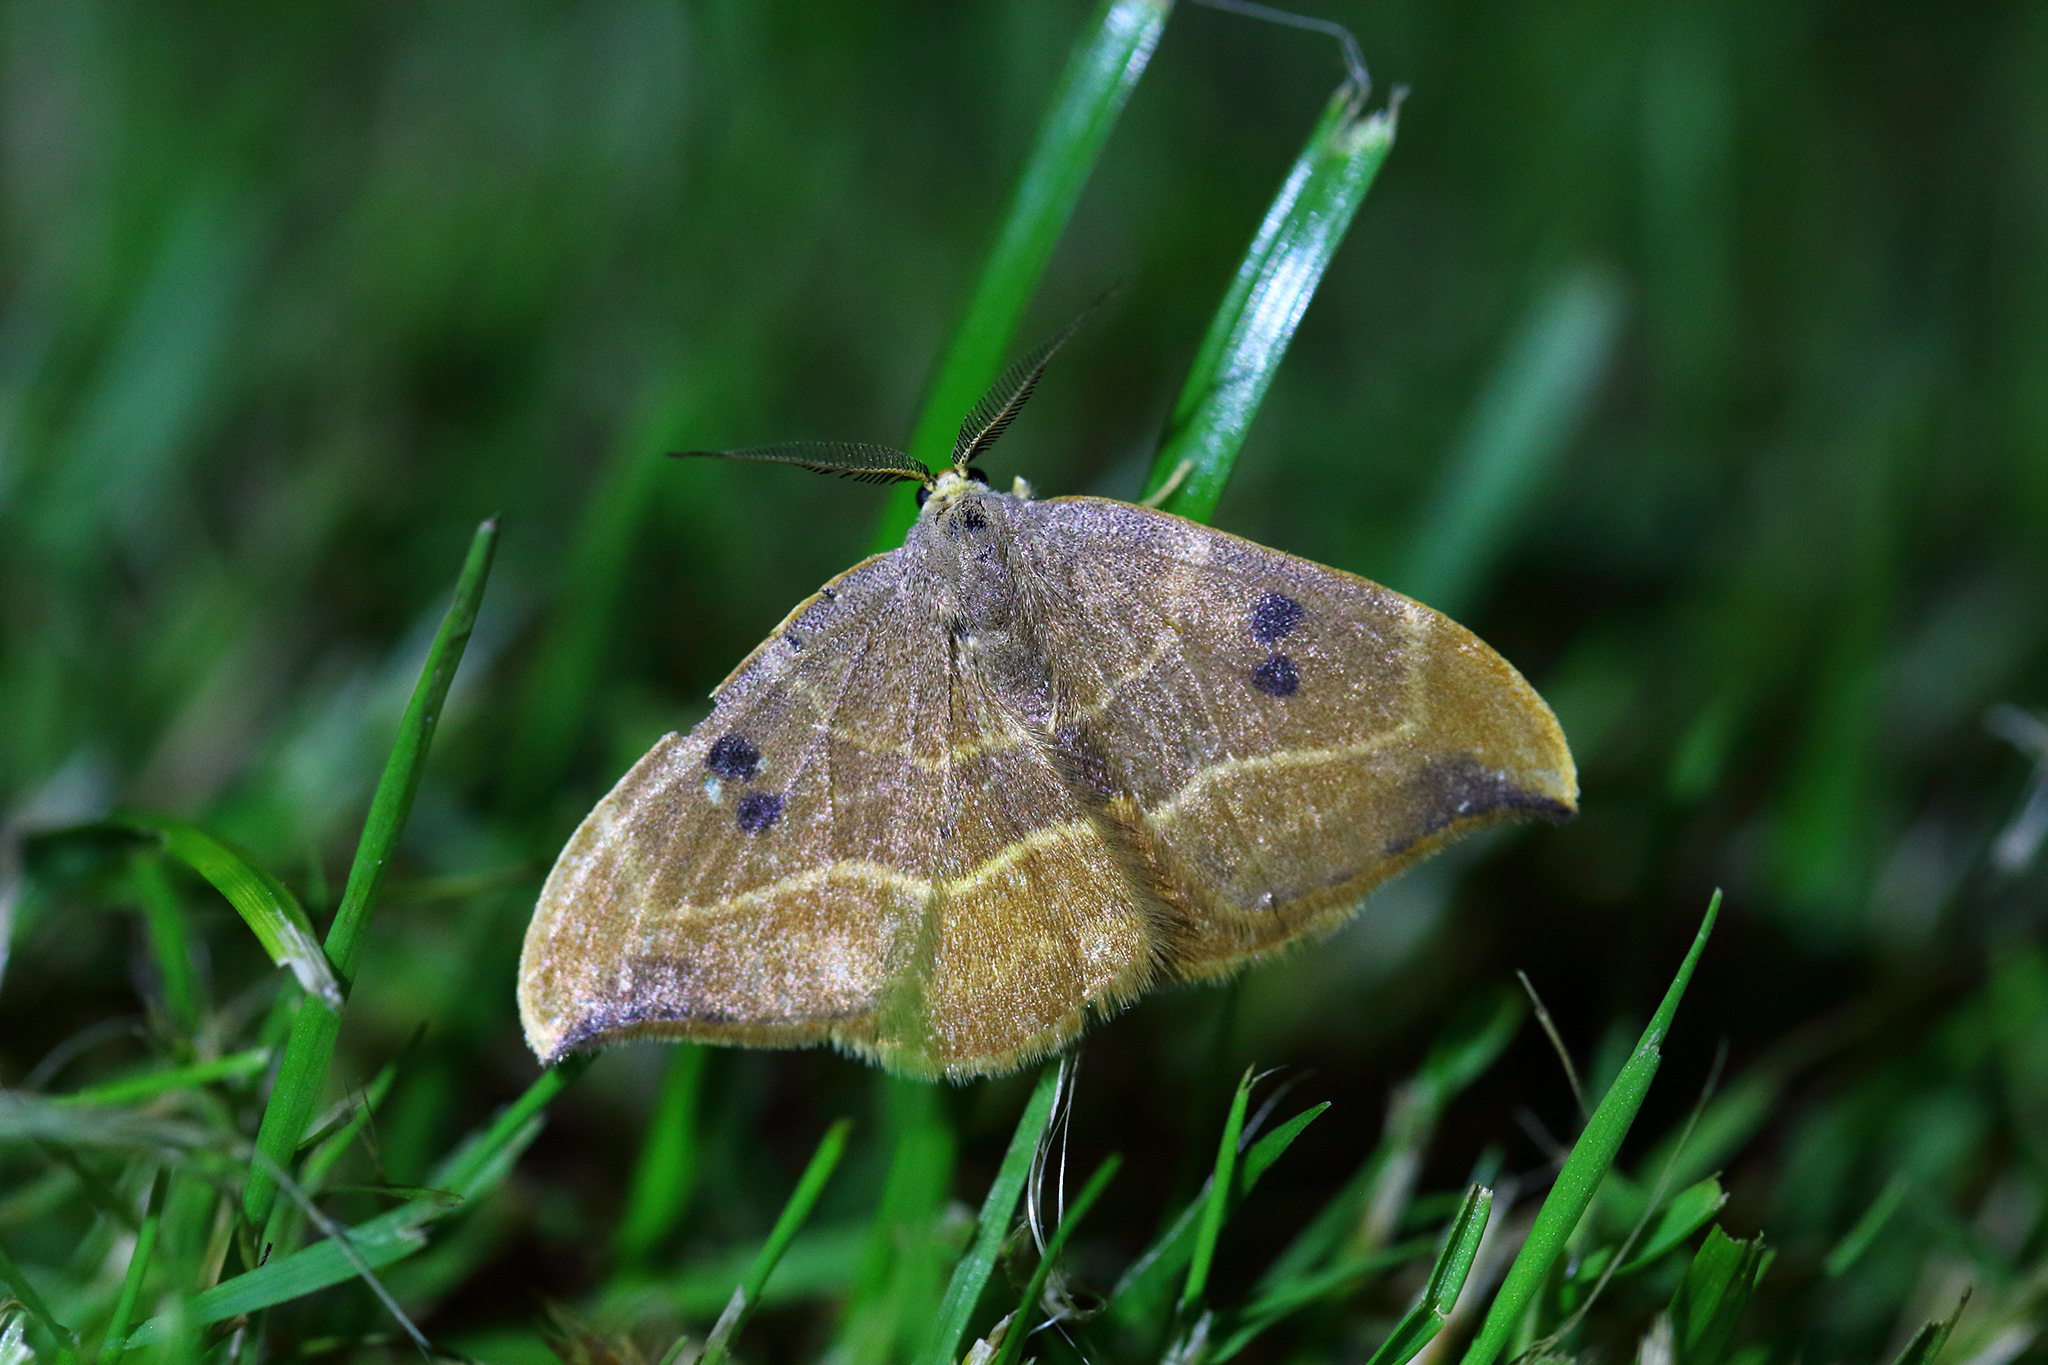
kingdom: Animalia
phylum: Arthropoda
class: Insecta
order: Lepidoptera
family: Drepanidae
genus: Watsonalla
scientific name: Watsonalla binaria
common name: Oak hook-tip
